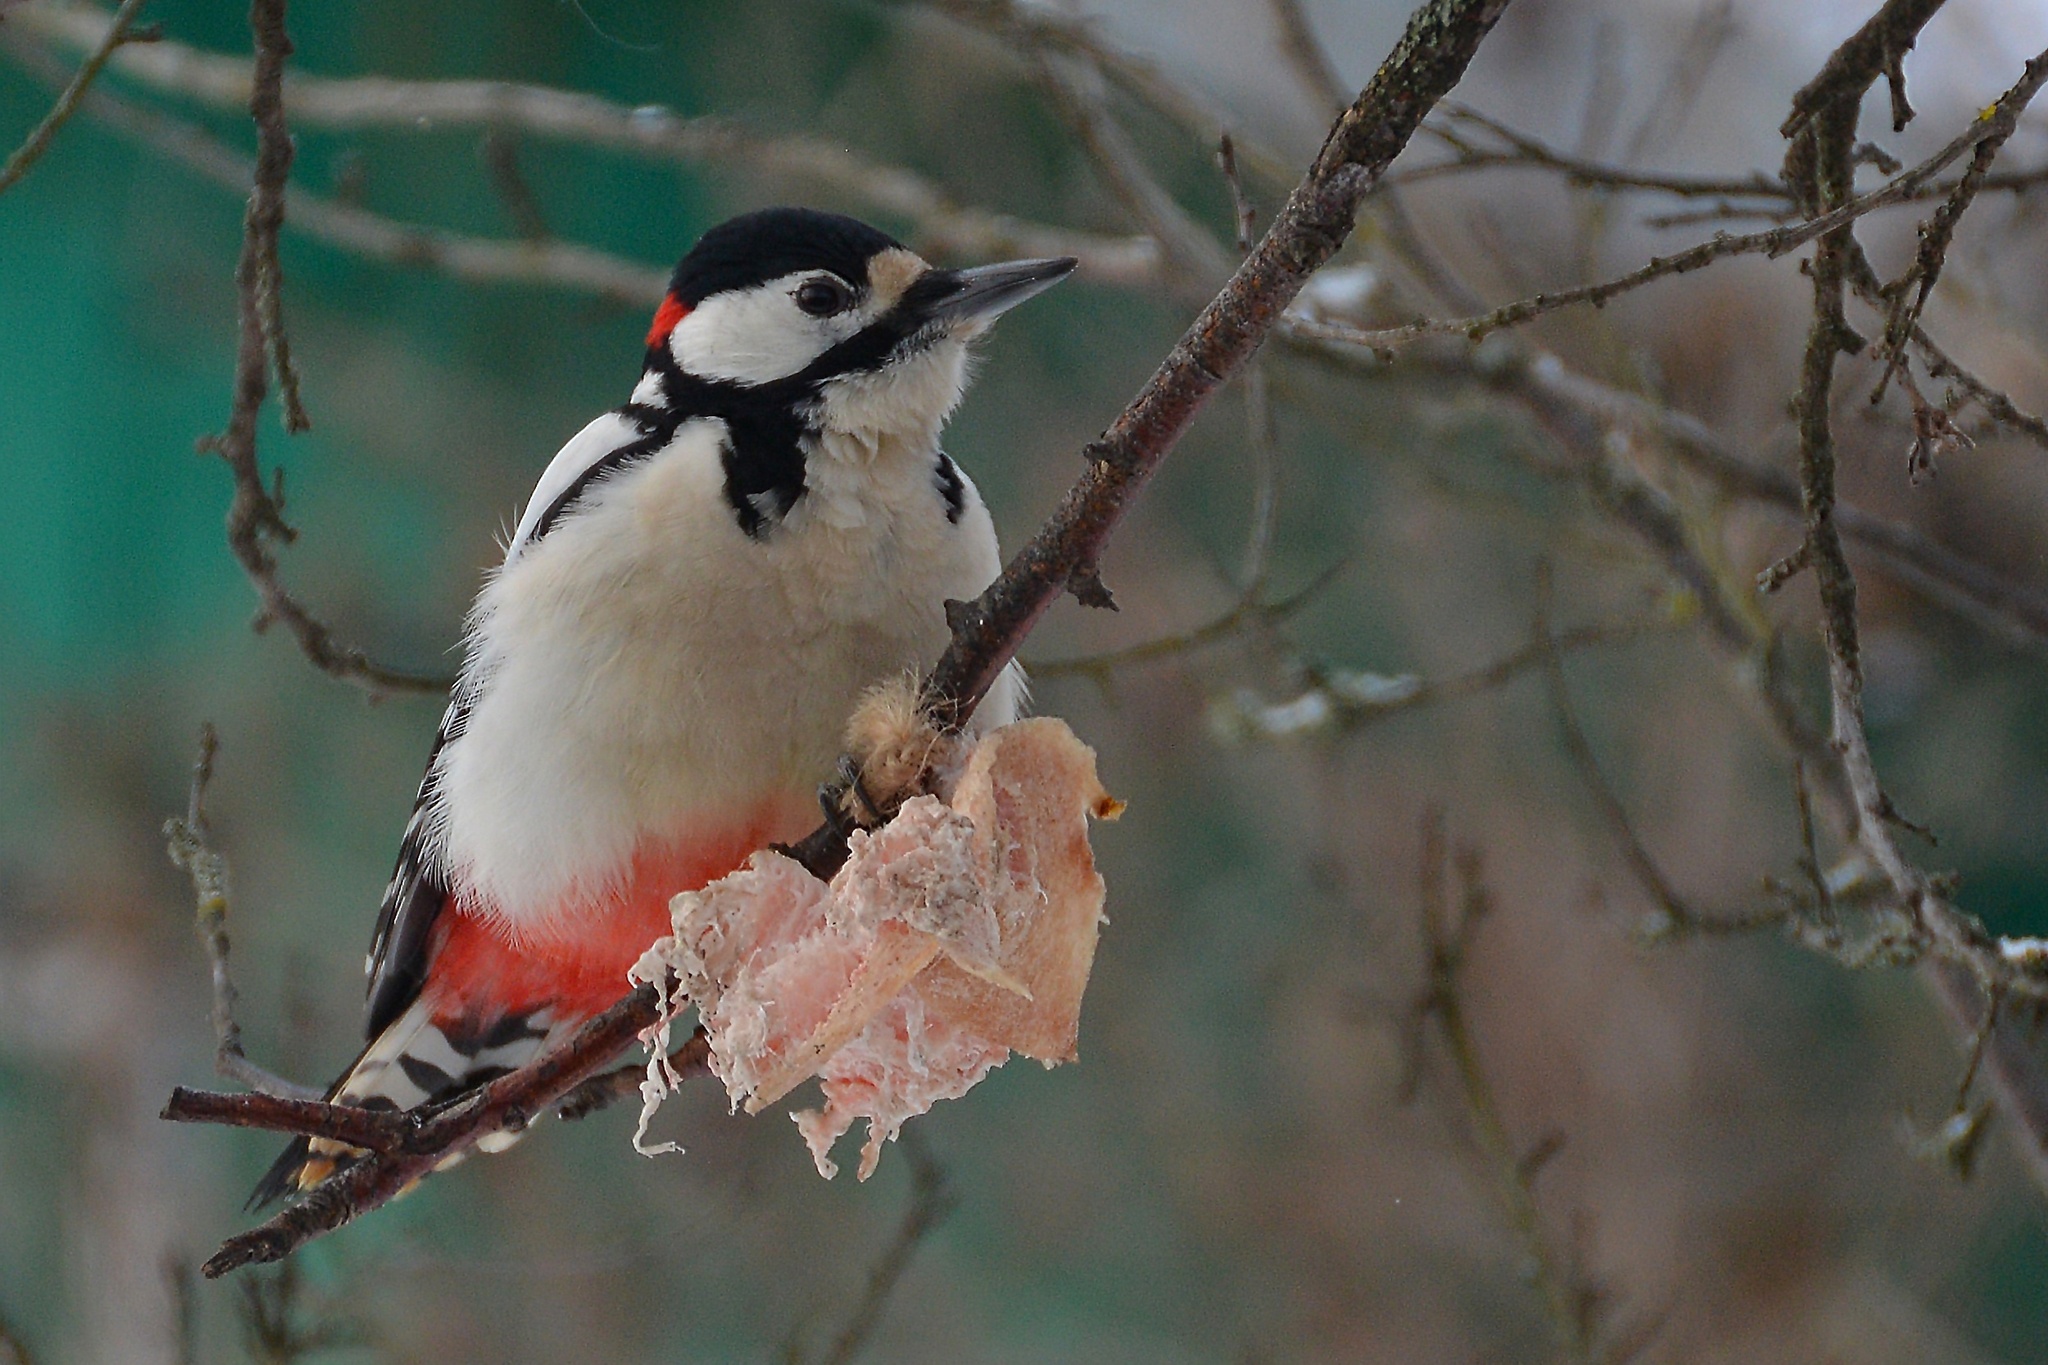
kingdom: Animalia
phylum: Chordata
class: Aves
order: Piciformes
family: Picidae
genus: Dendrocopos
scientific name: Dendrocopos major
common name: Great spotted woodpecker
